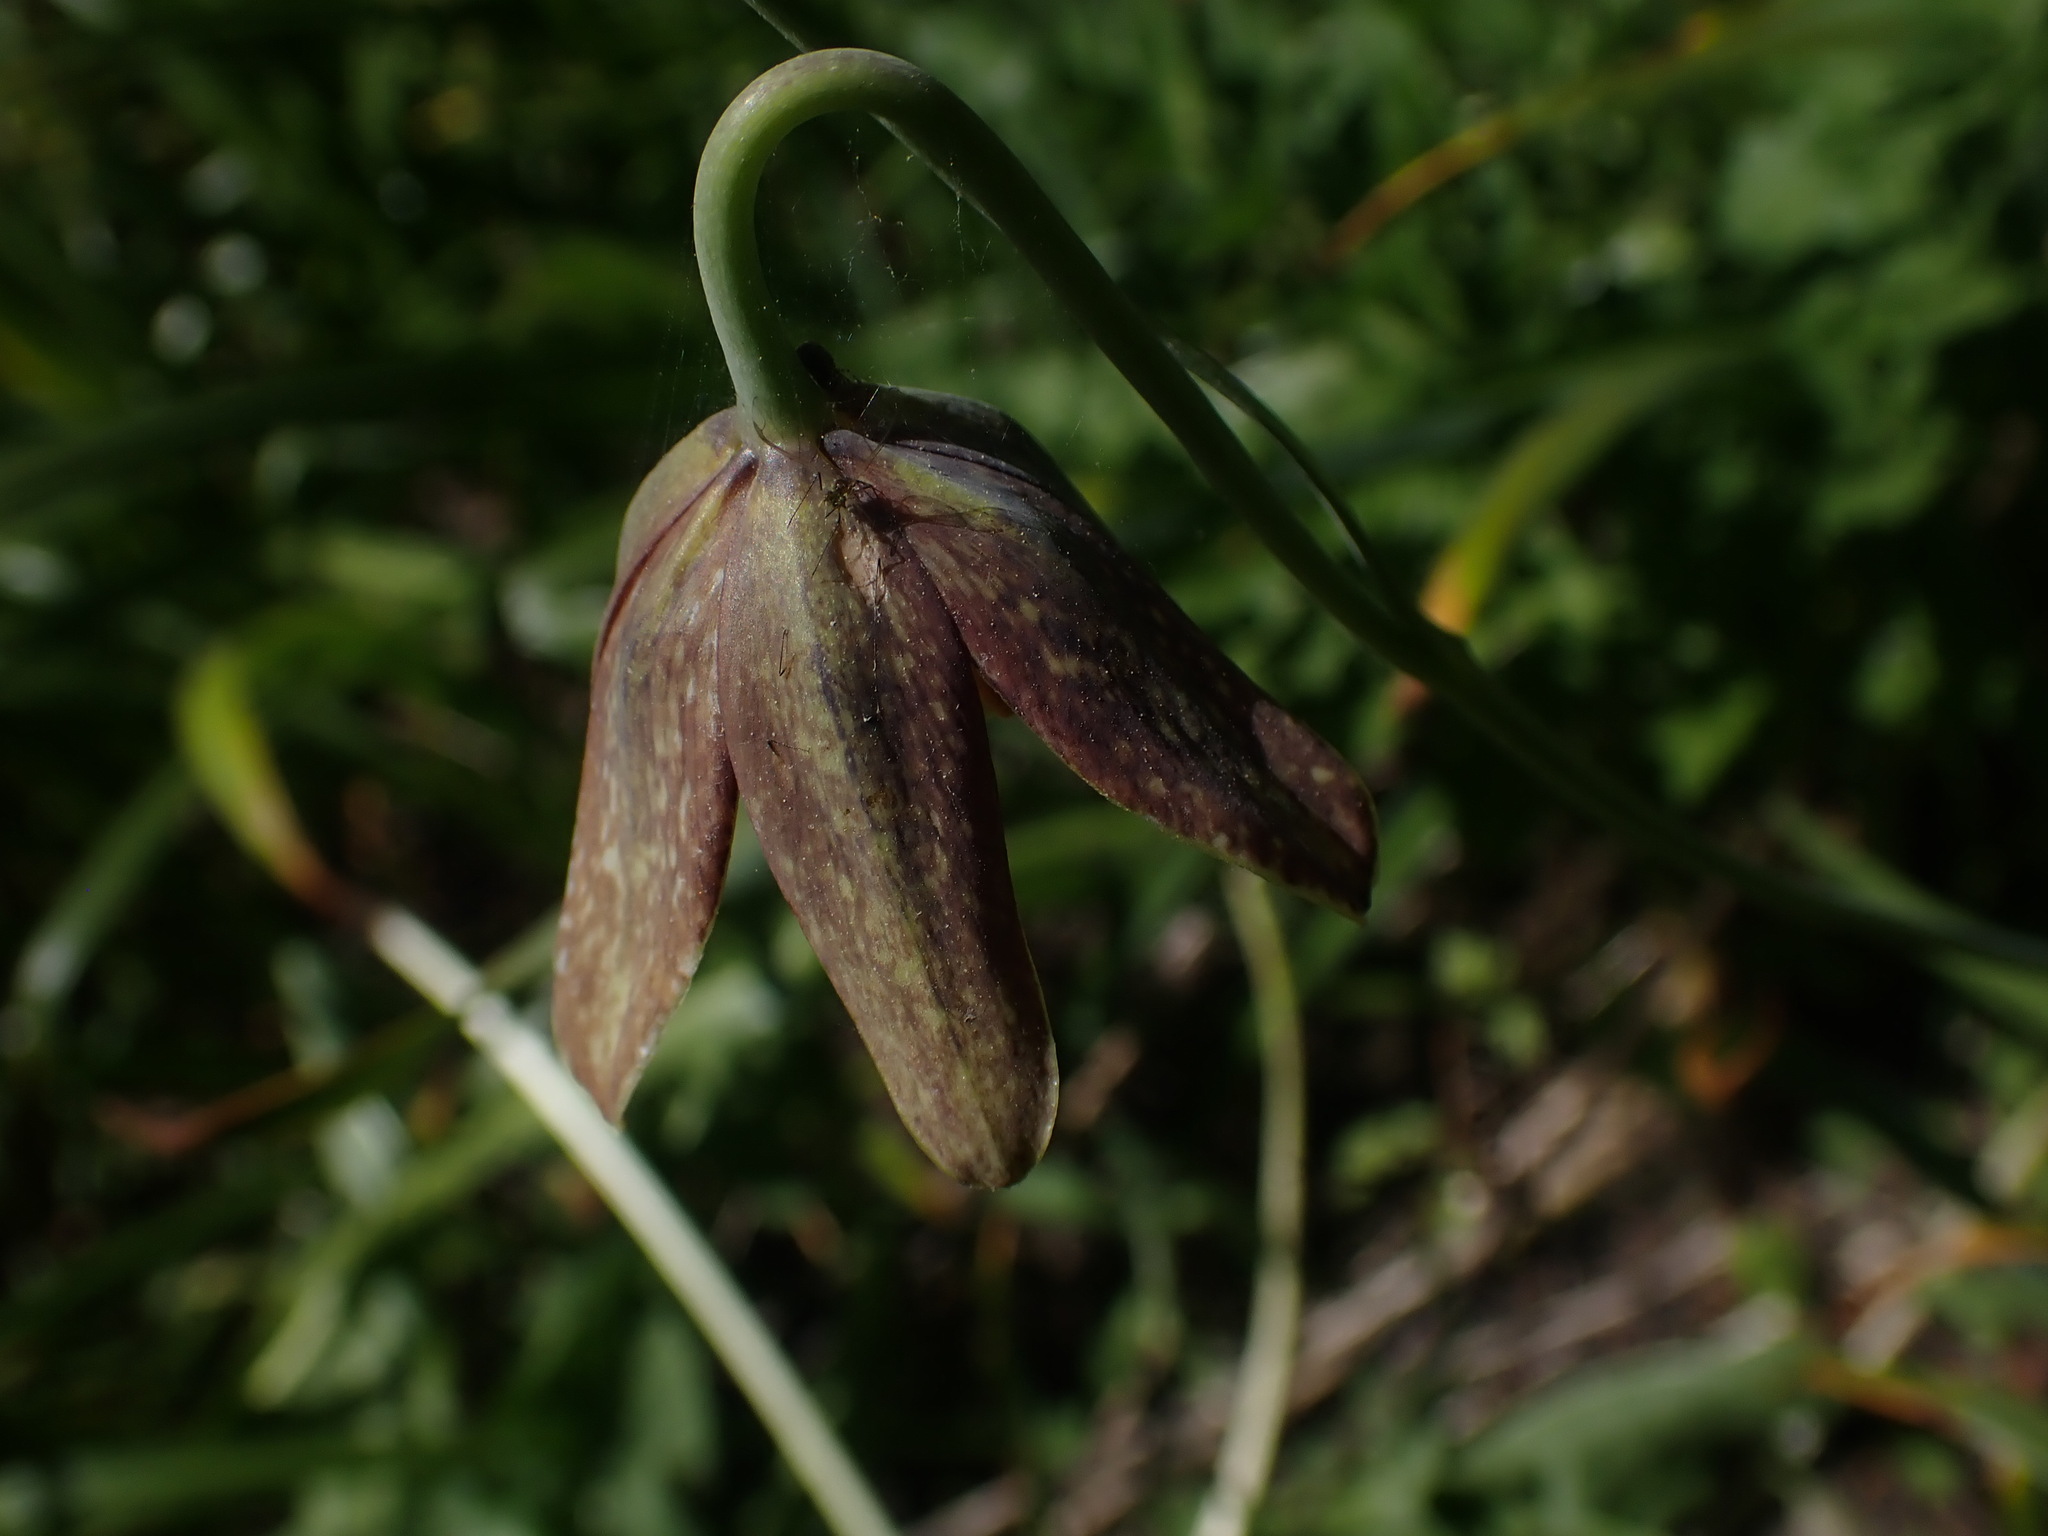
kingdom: Plantae
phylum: Tracheophyta
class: Liliopsida
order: Liliales
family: Liliaceae
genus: Fritillaria
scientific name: Fritillaria affinis
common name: Ojai fritillary
